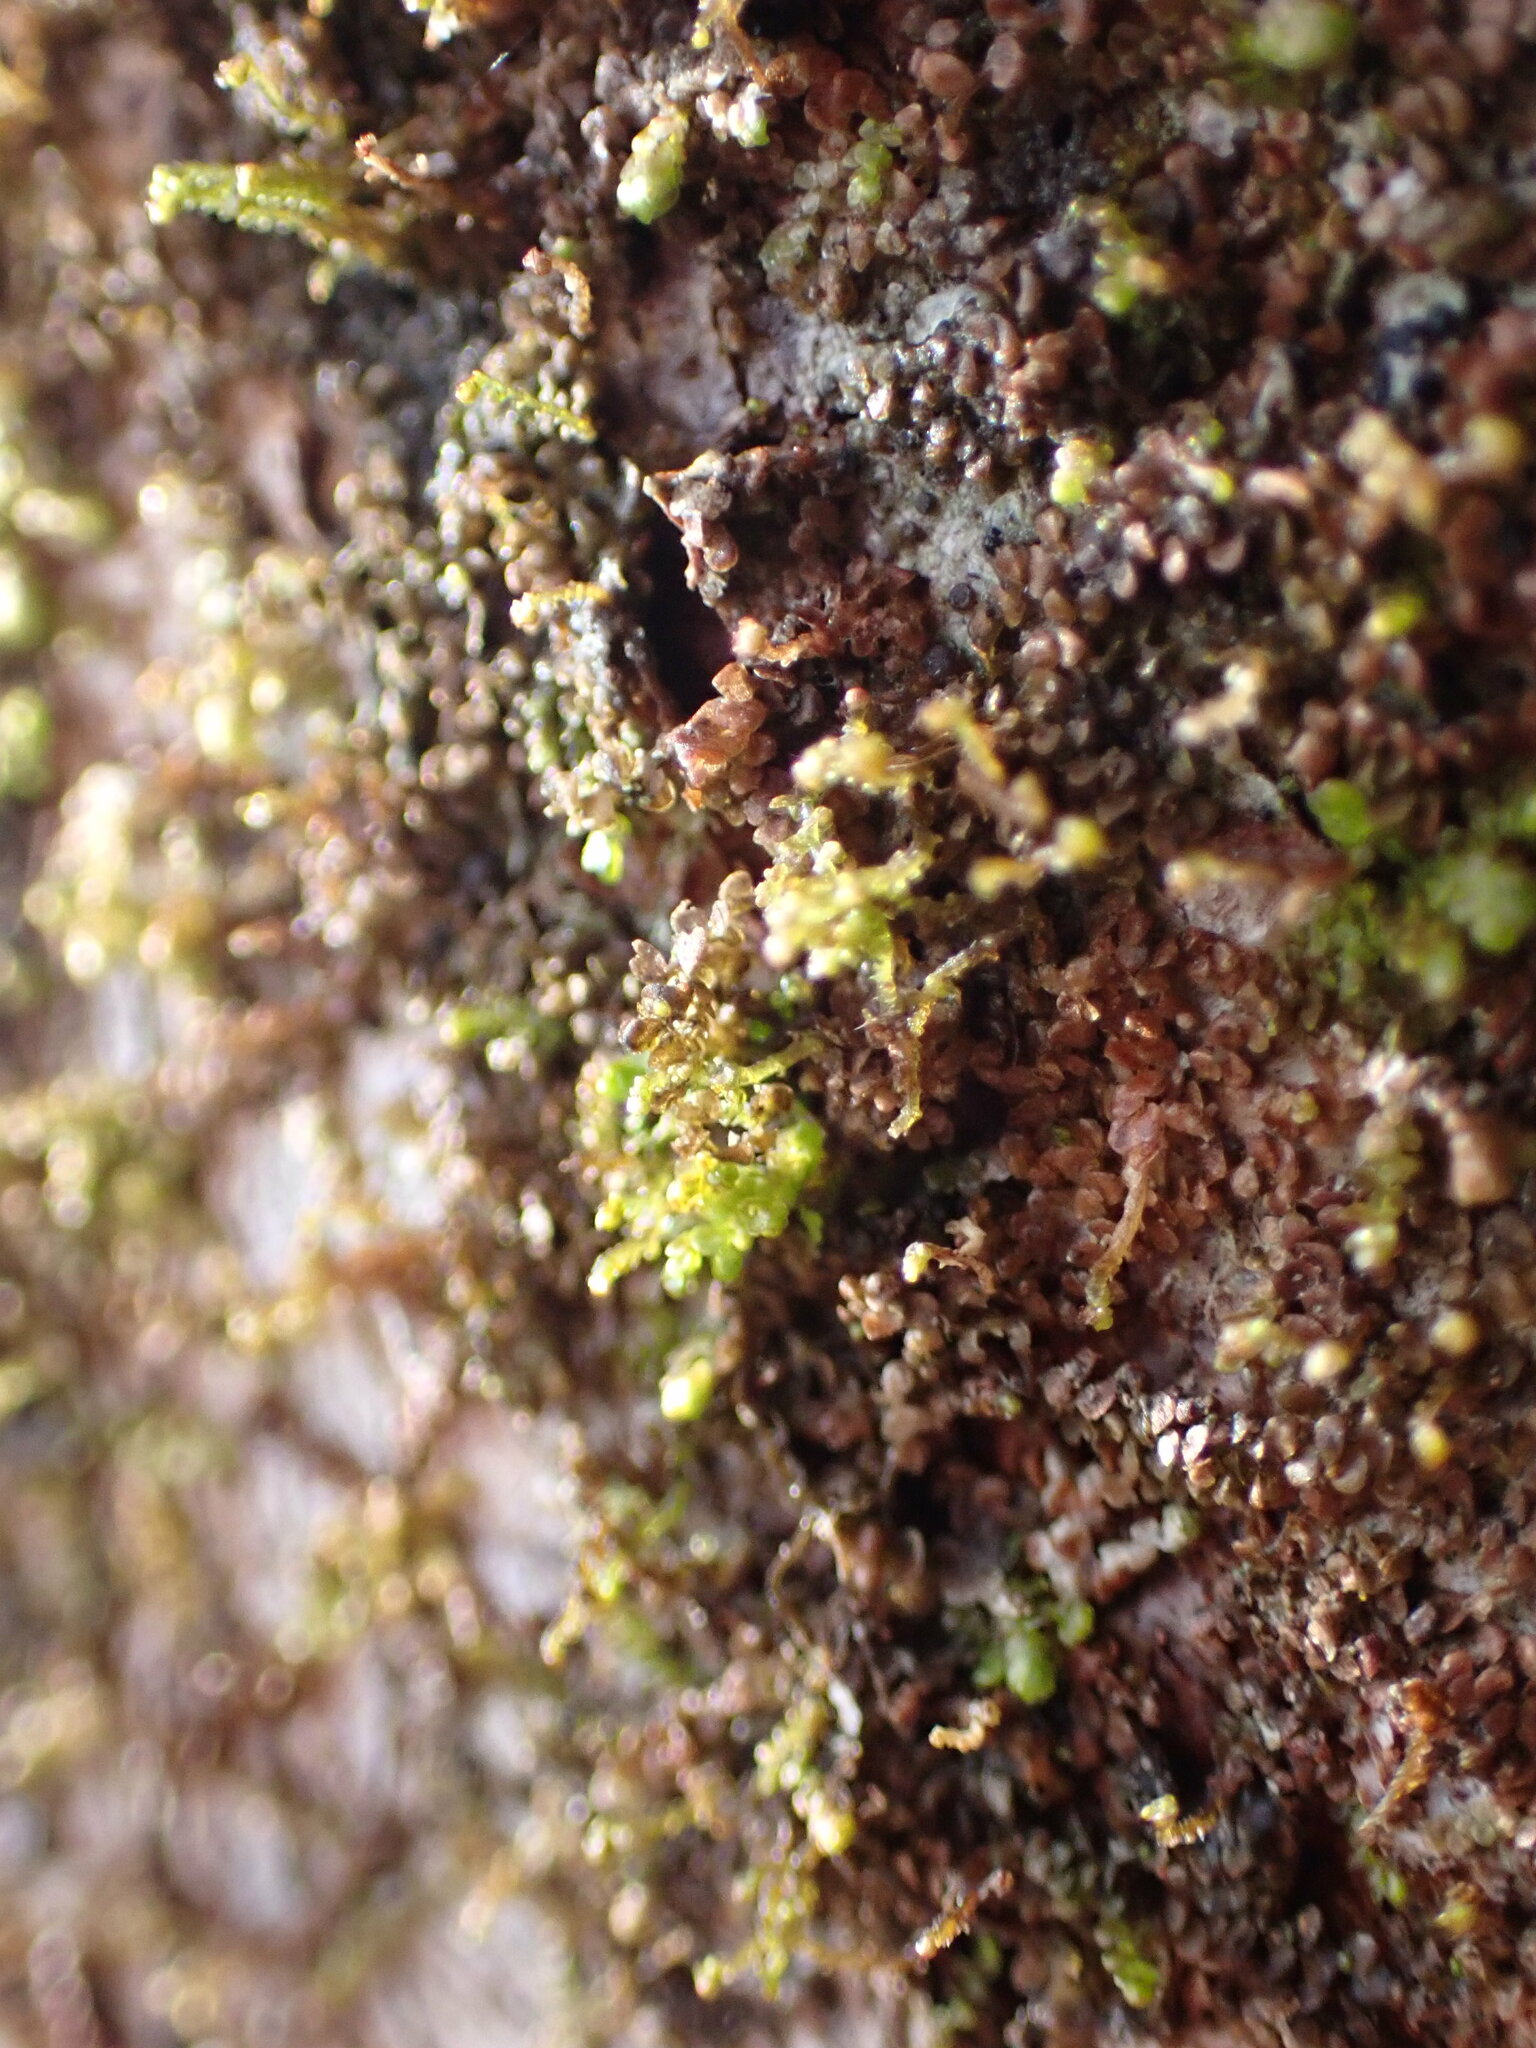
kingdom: Plantae
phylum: Marchantiophyta
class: Jungermanniopsida
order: Porellales
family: Frullaniaceae
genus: Frullania
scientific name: Frullania bolanderi
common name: Bolander s scalewort
